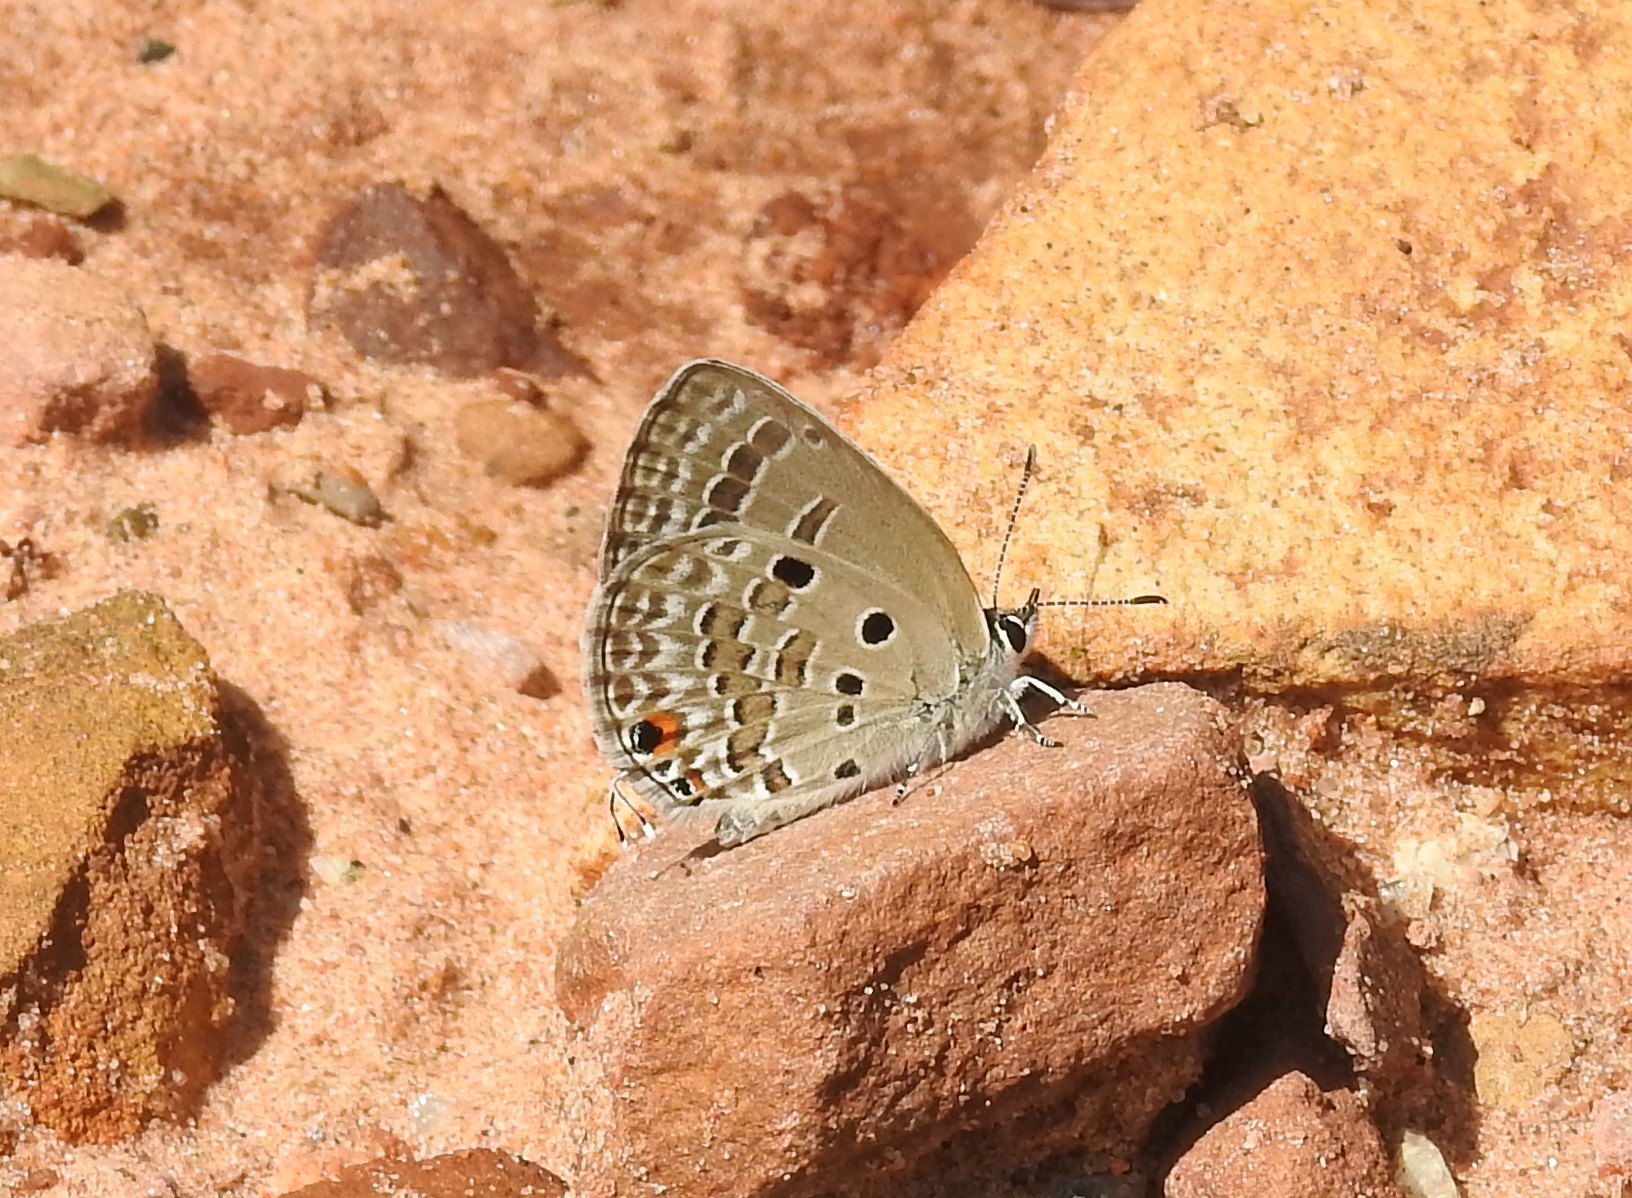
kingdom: Animalia
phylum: Arthropoda
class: Insecta
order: Lepidoptera
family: Lycaenidae
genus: Luthrodes
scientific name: Luthrodes pandava
